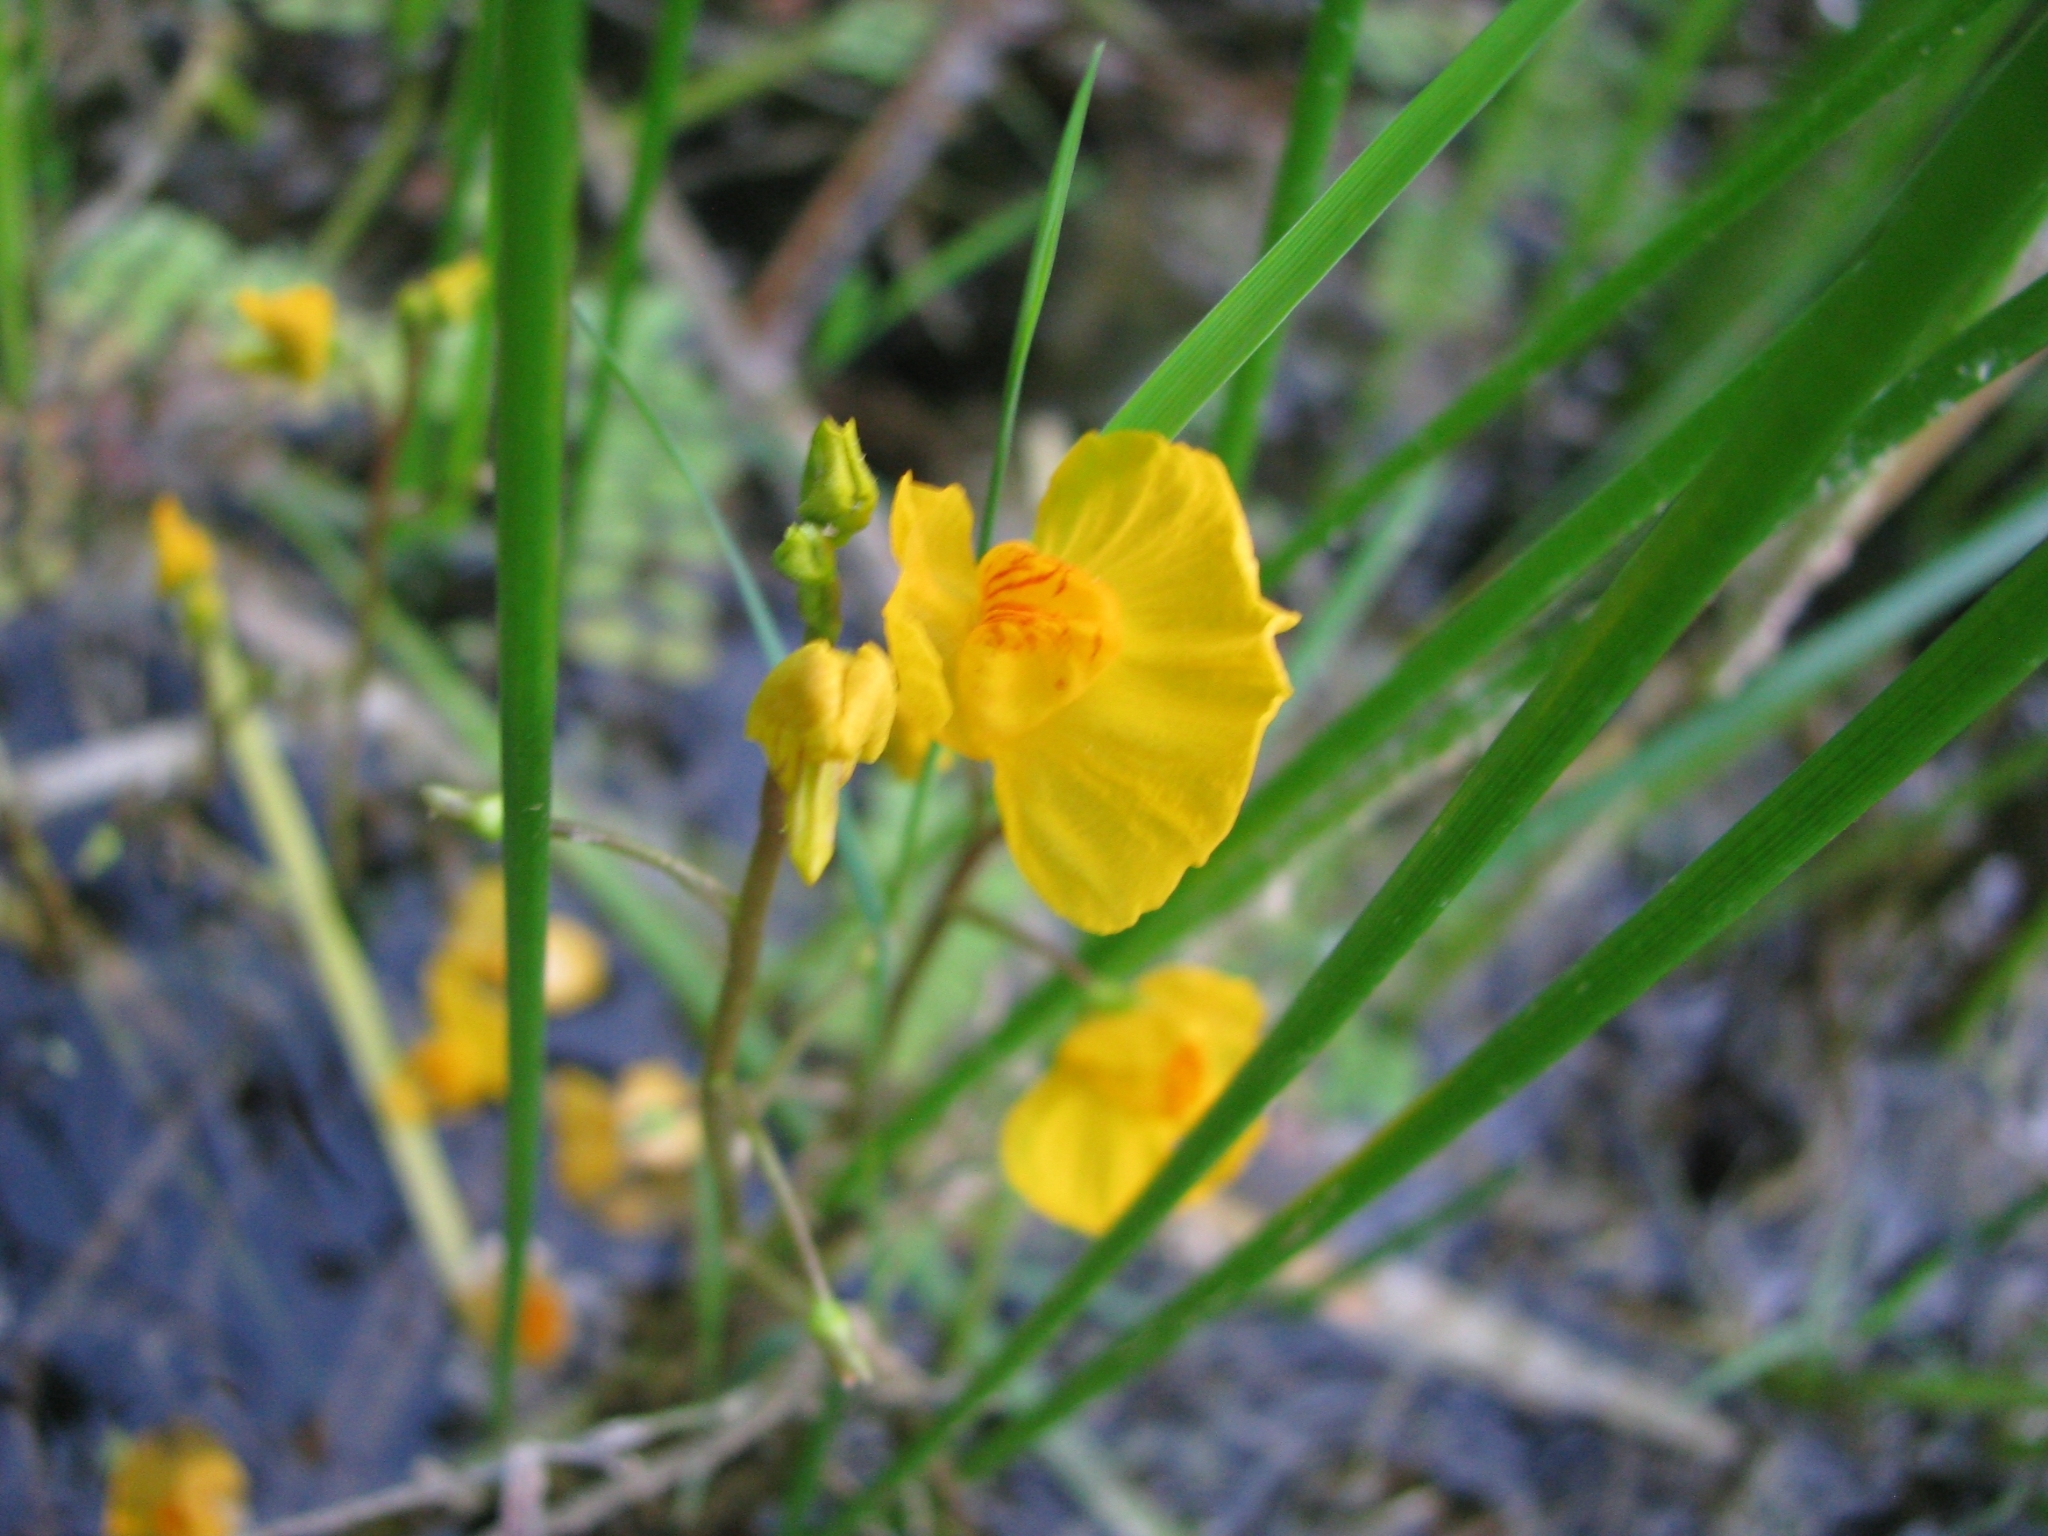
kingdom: Plantae
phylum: Tracheophyta
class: Magnoliopsida
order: Lamiales
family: Lentibulariaceae
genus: Utricularia
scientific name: Utricularia australis
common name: Bladderwort
